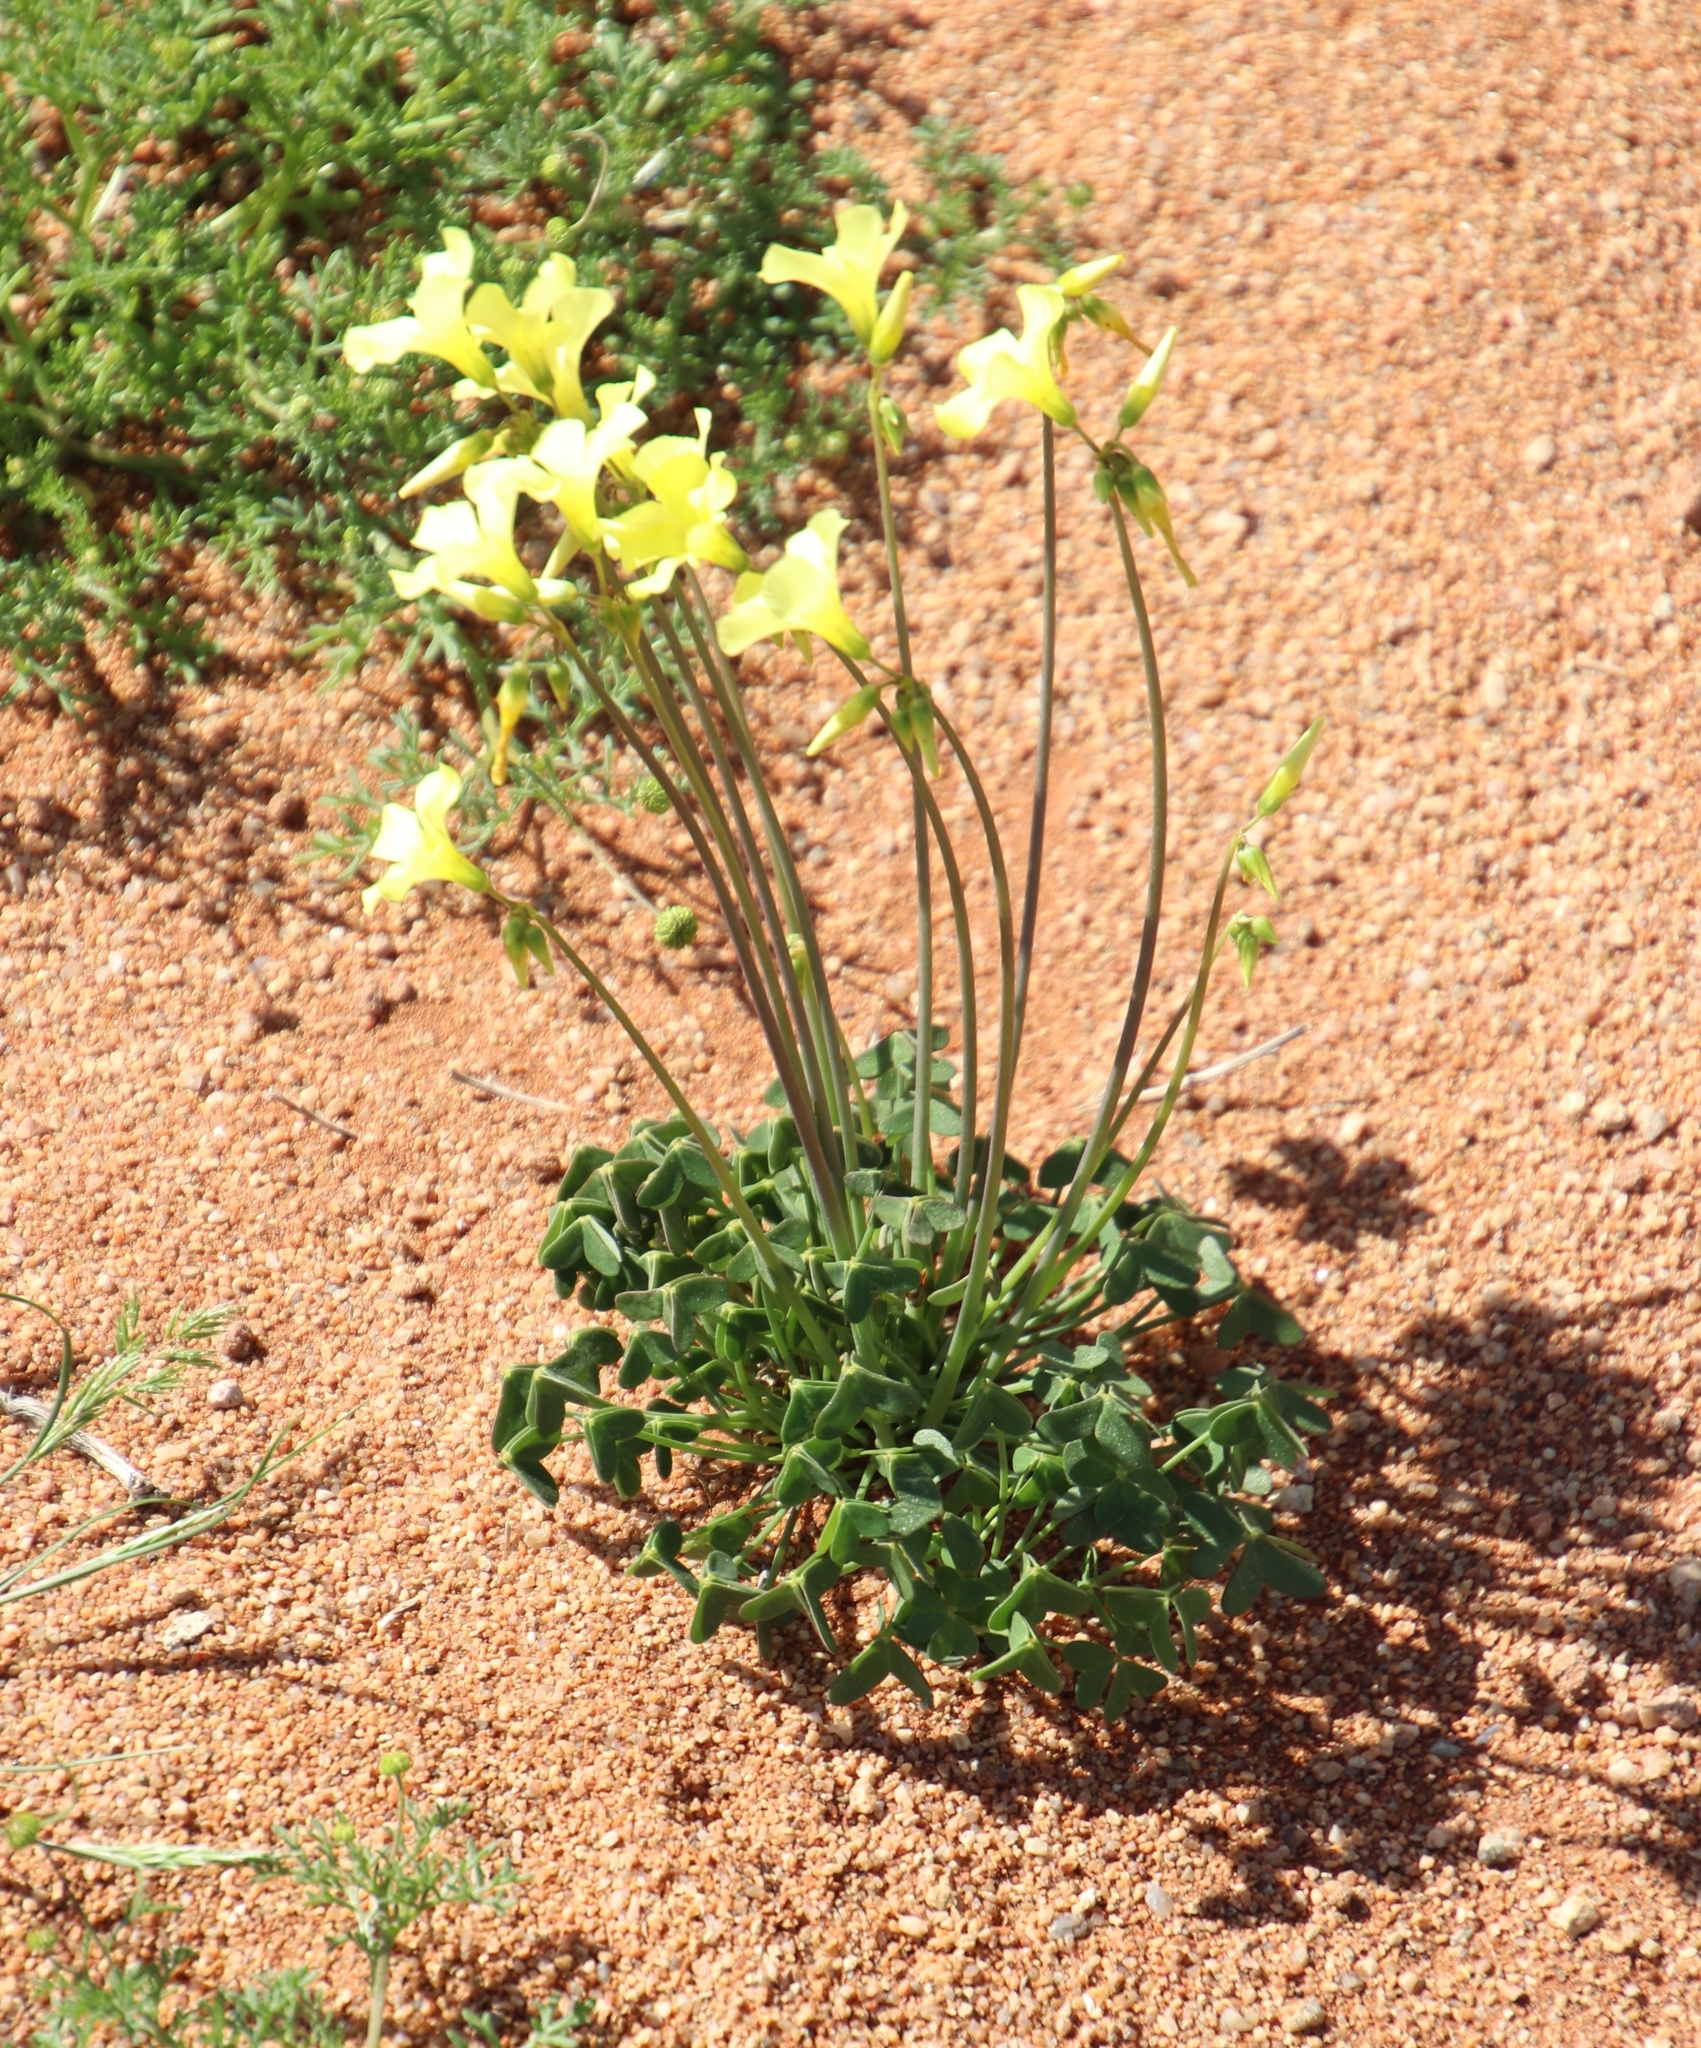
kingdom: Plantae
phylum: Tracheophyta
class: Magnoliopsida
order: Oxalidales
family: Oxalidaceae
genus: Oxalis
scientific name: Oxalis pes-caprae
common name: Bermuda-buttercup
